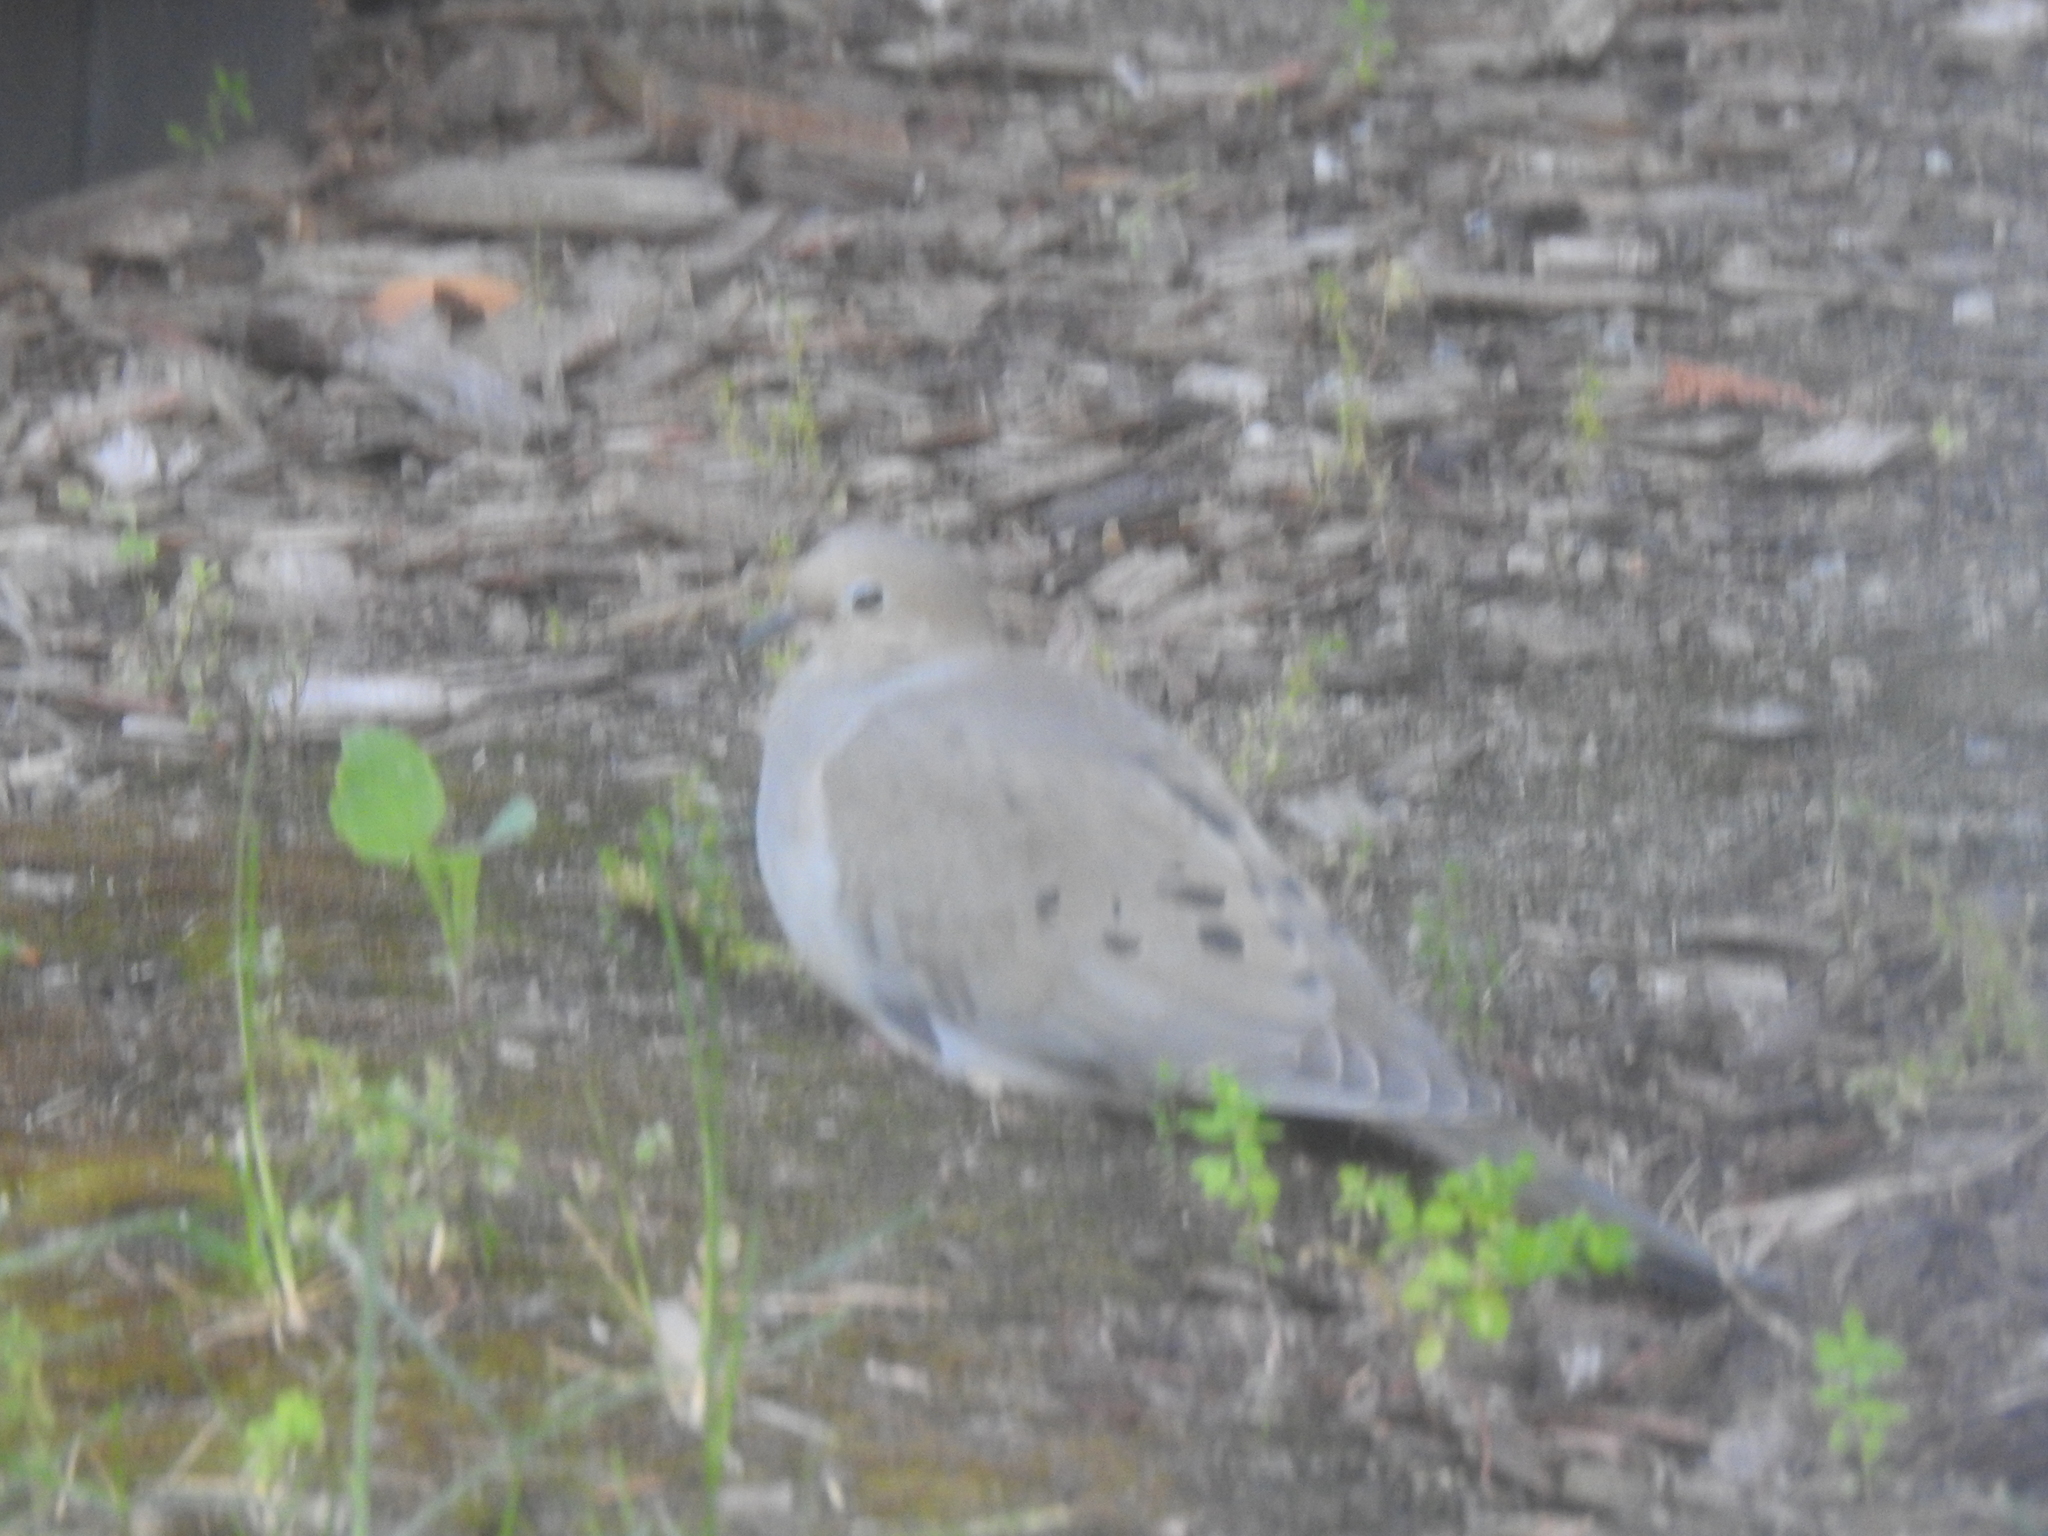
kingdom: Animalia
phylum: Chordata
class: Aves
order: Columbiformes
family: Columbidae
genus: Zenaida
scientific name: Zenaida macroura
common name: Mourning dove
